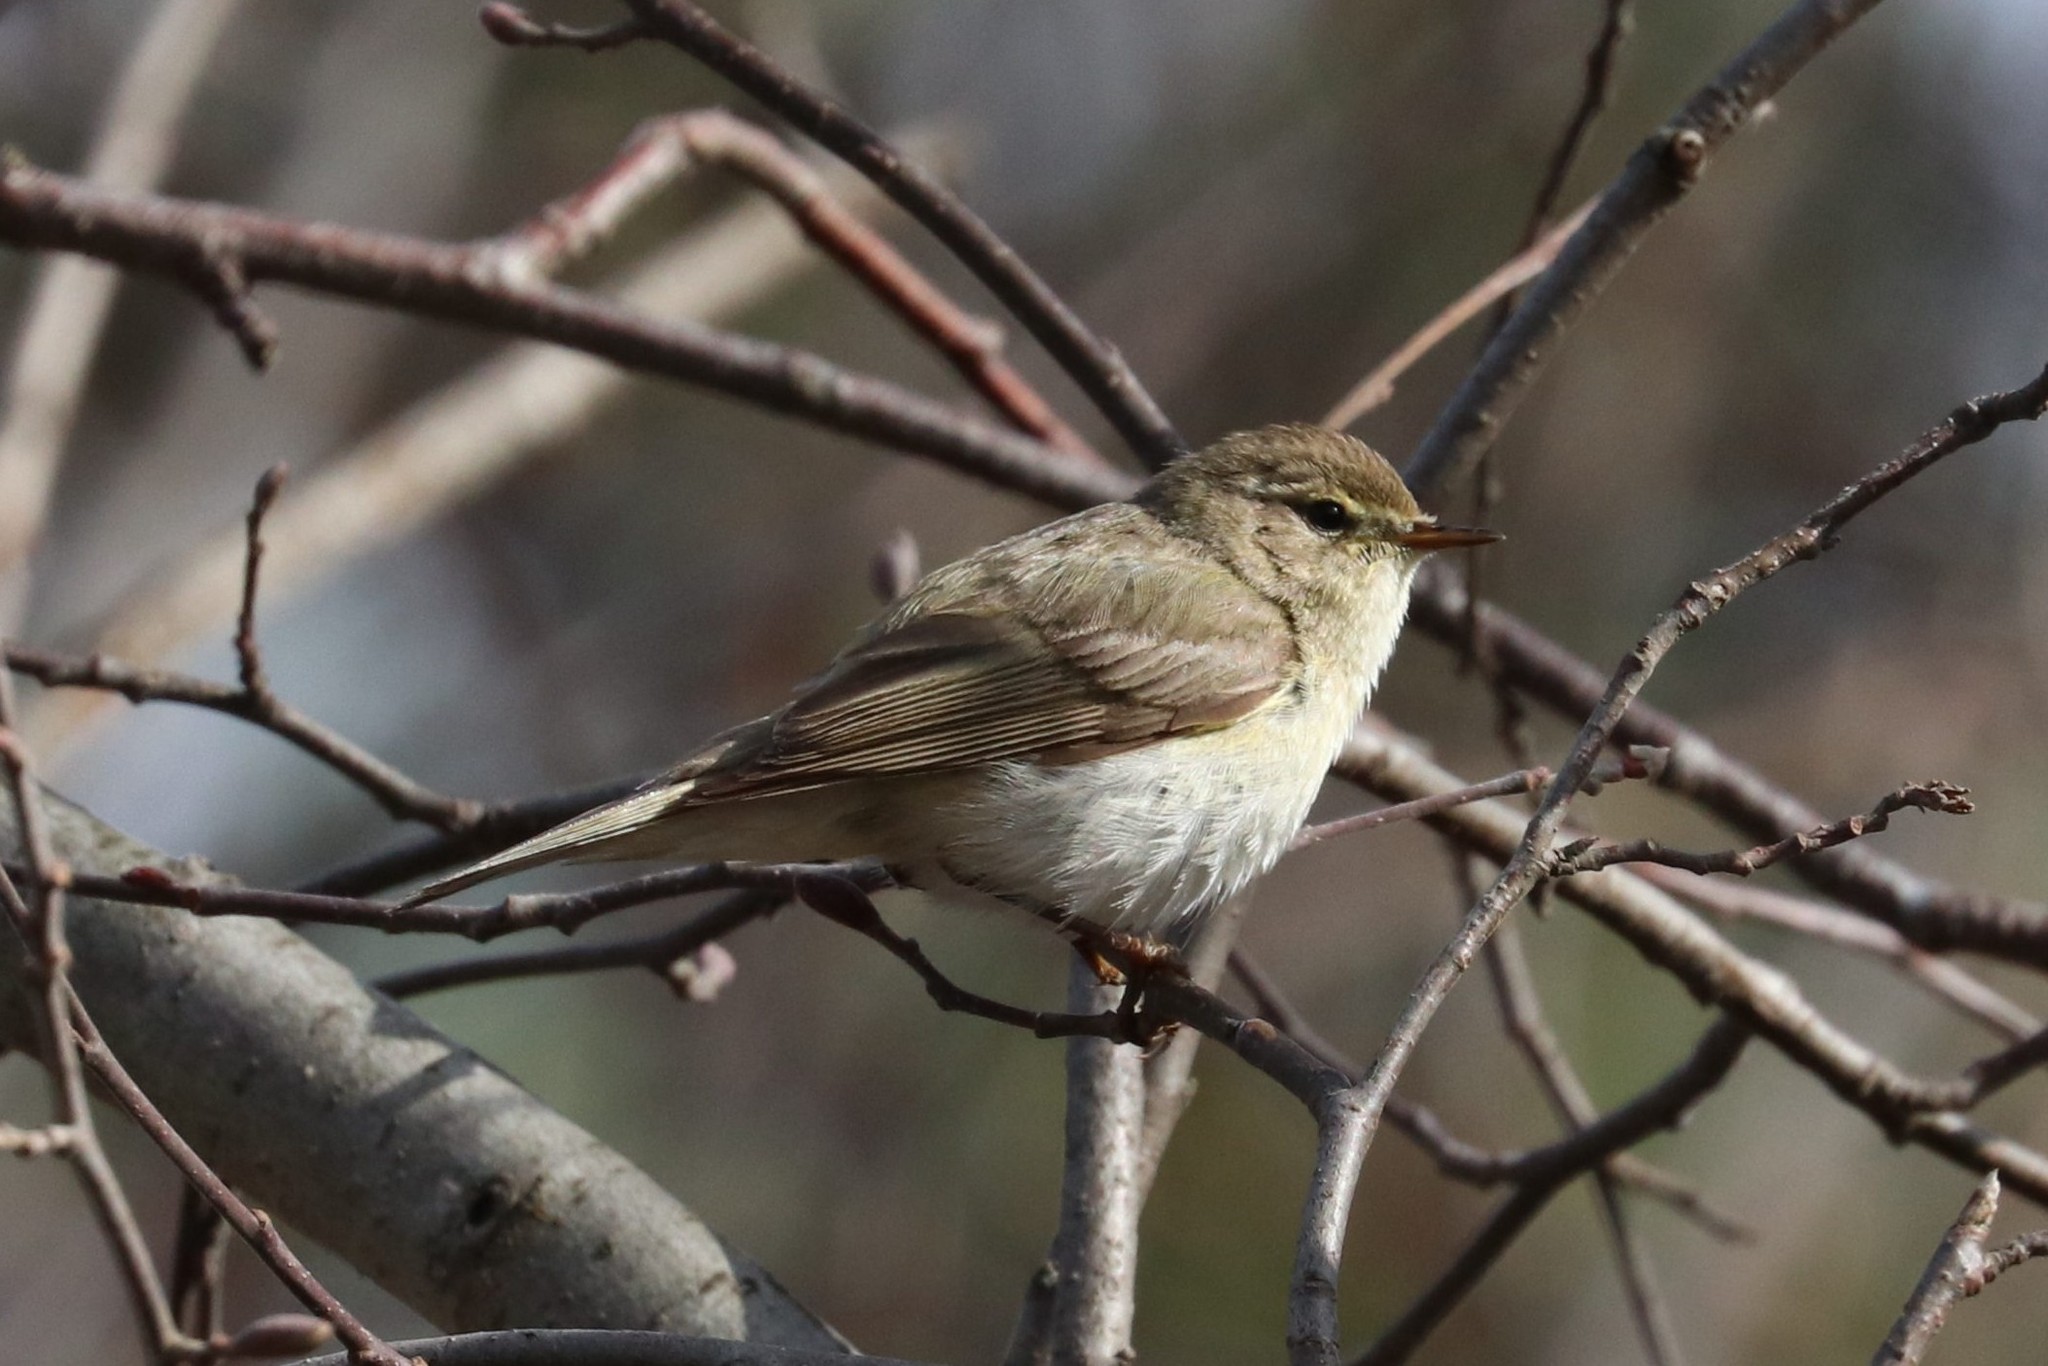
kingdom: Animalia
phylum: Chordata
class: Aves
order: Passeriformes
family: Phylloscopidae
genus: Phylloscopus
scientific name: Phylloscopus collybita
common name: Common chiffchaff
